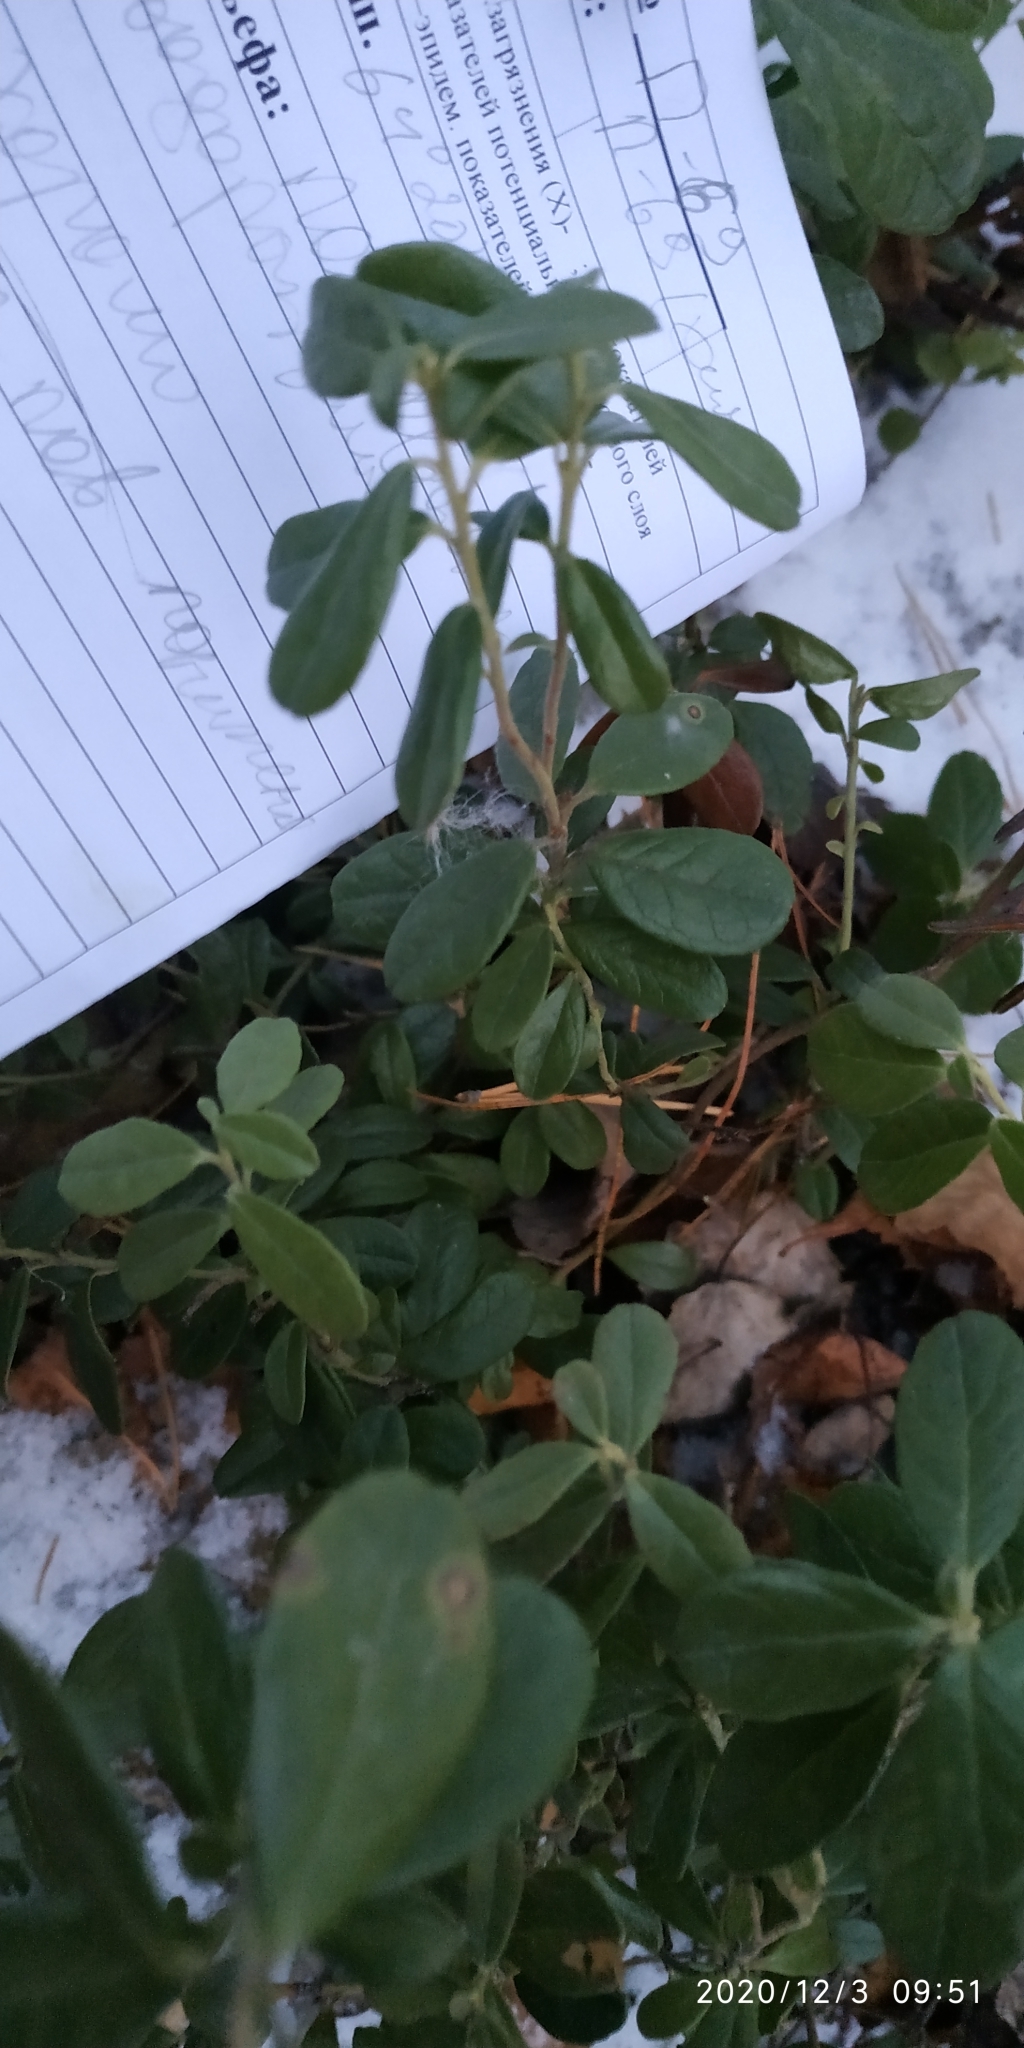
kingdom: Plantae
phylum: Tracheophyta
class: Magnoliopsida
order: Ericales
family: Ericaceae
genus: Vaccinium
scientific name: Vaccinium vitis-idaea
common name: Cowberry
